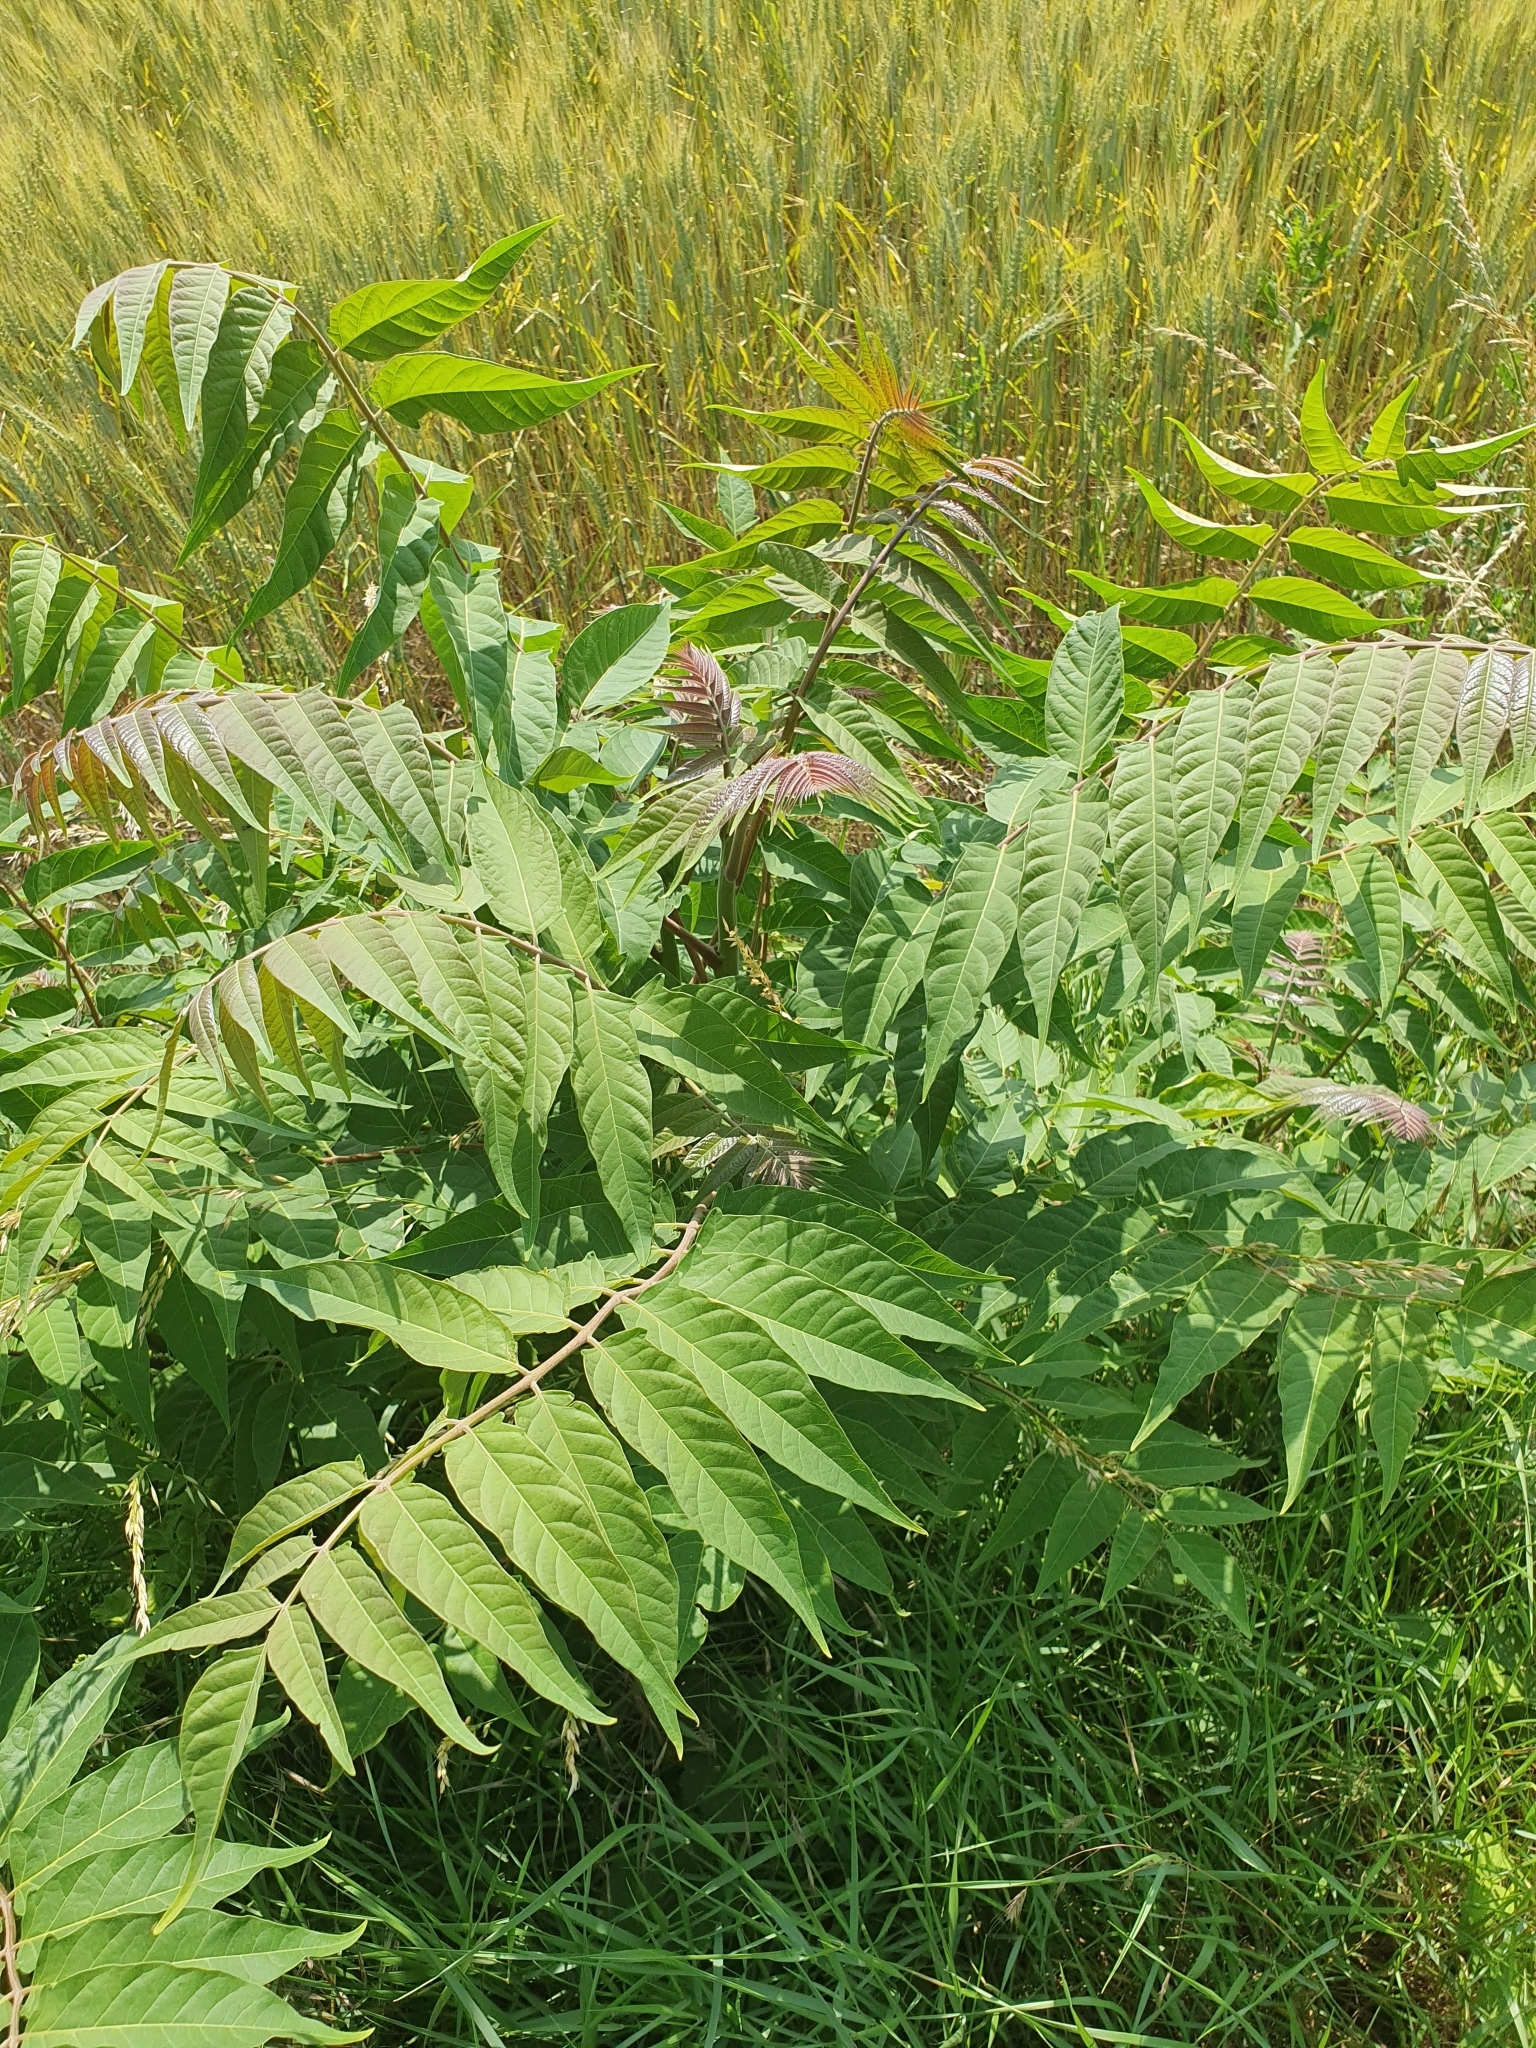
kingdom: Plantae
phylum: Tracheophyta
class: Magnoliopsida
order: Sapindales
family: Simaroubaceae
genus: Ailanthus
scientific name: Ailanthus altissima
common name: Tree-of-heaven
